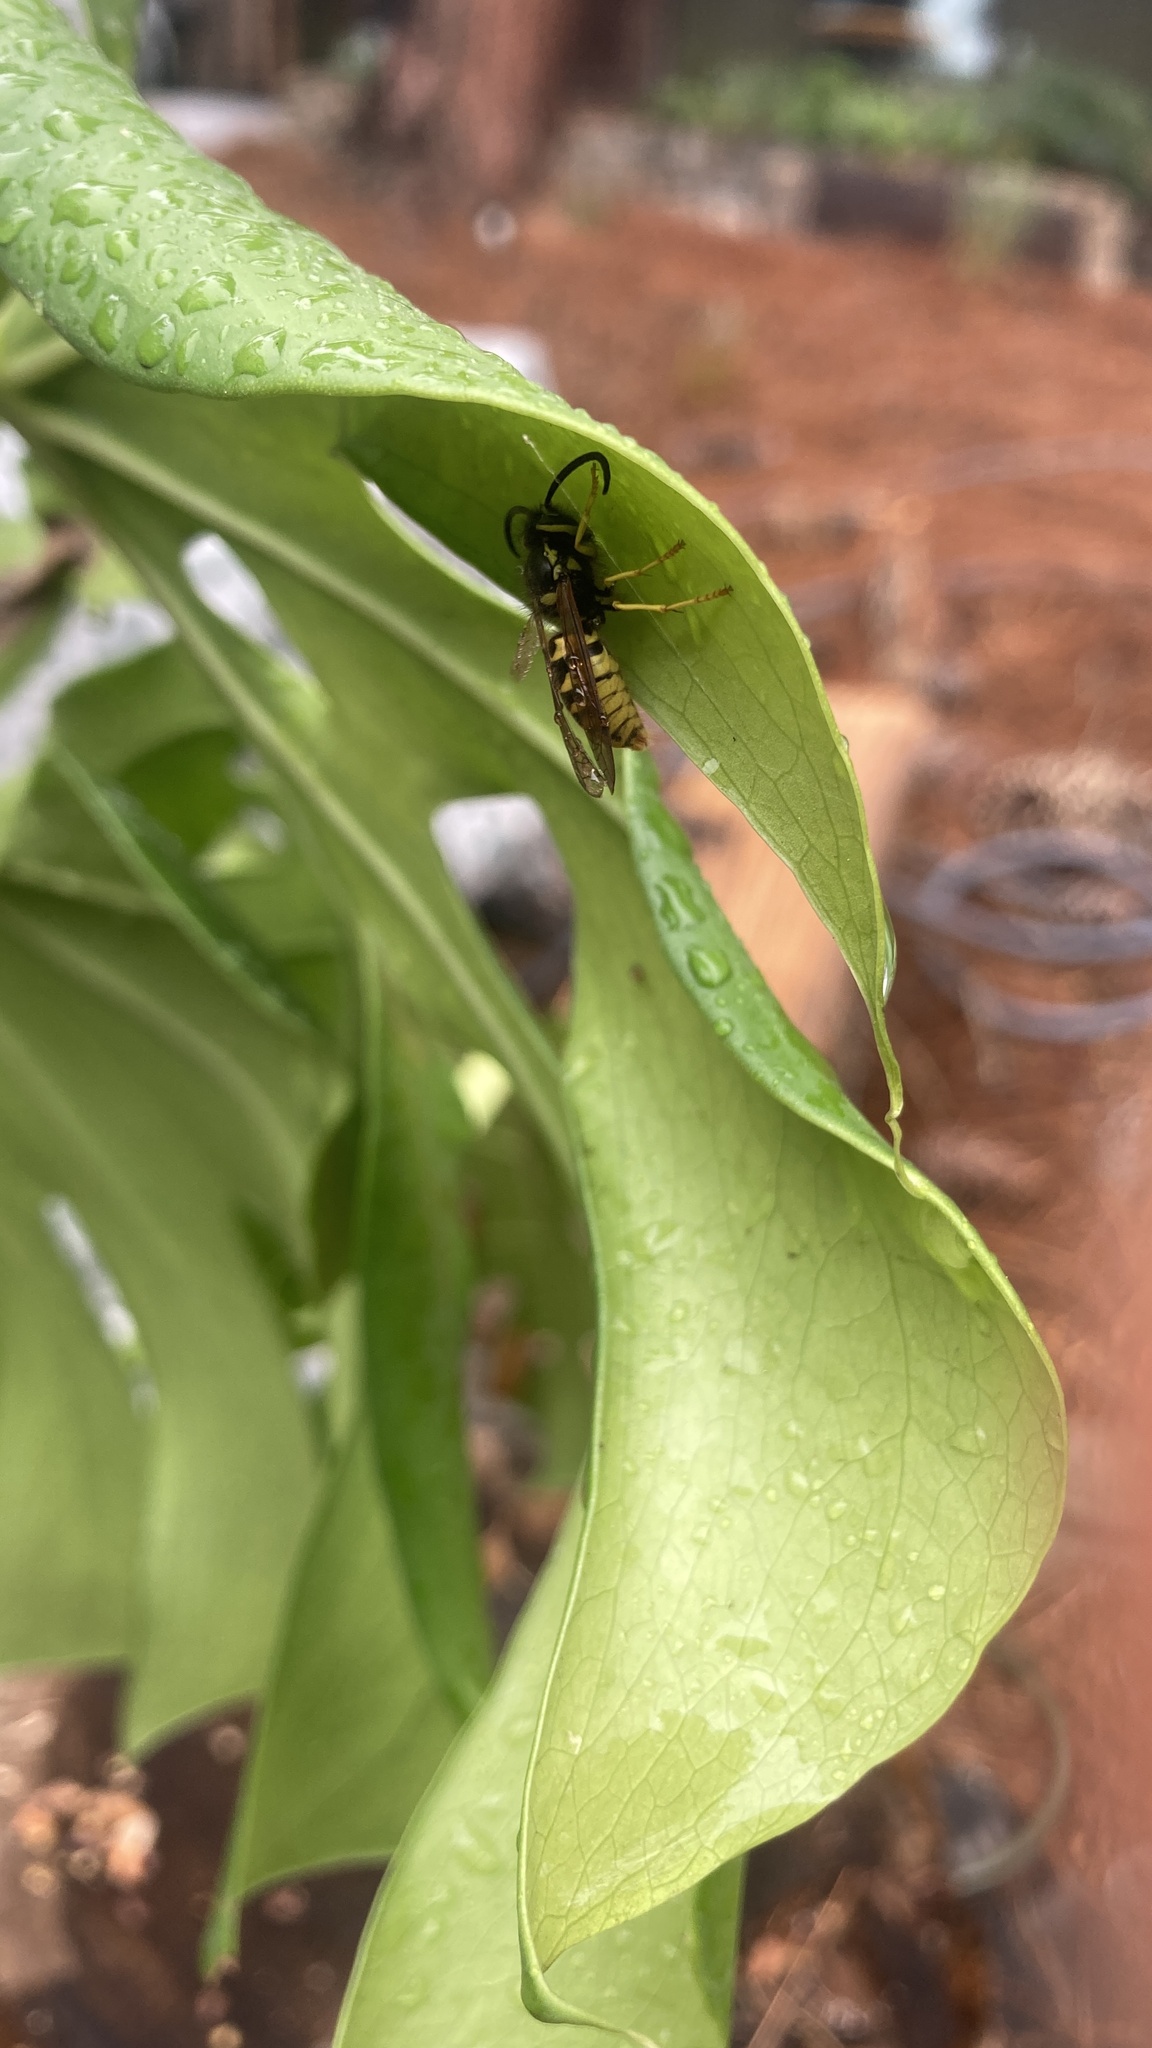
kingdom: Animalia
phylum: Arthropoda
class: Insecta
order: Hymenoptera
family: Vespidae
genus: Vespula
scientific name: Vespula pensylvanica
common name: Western yellowjacket
